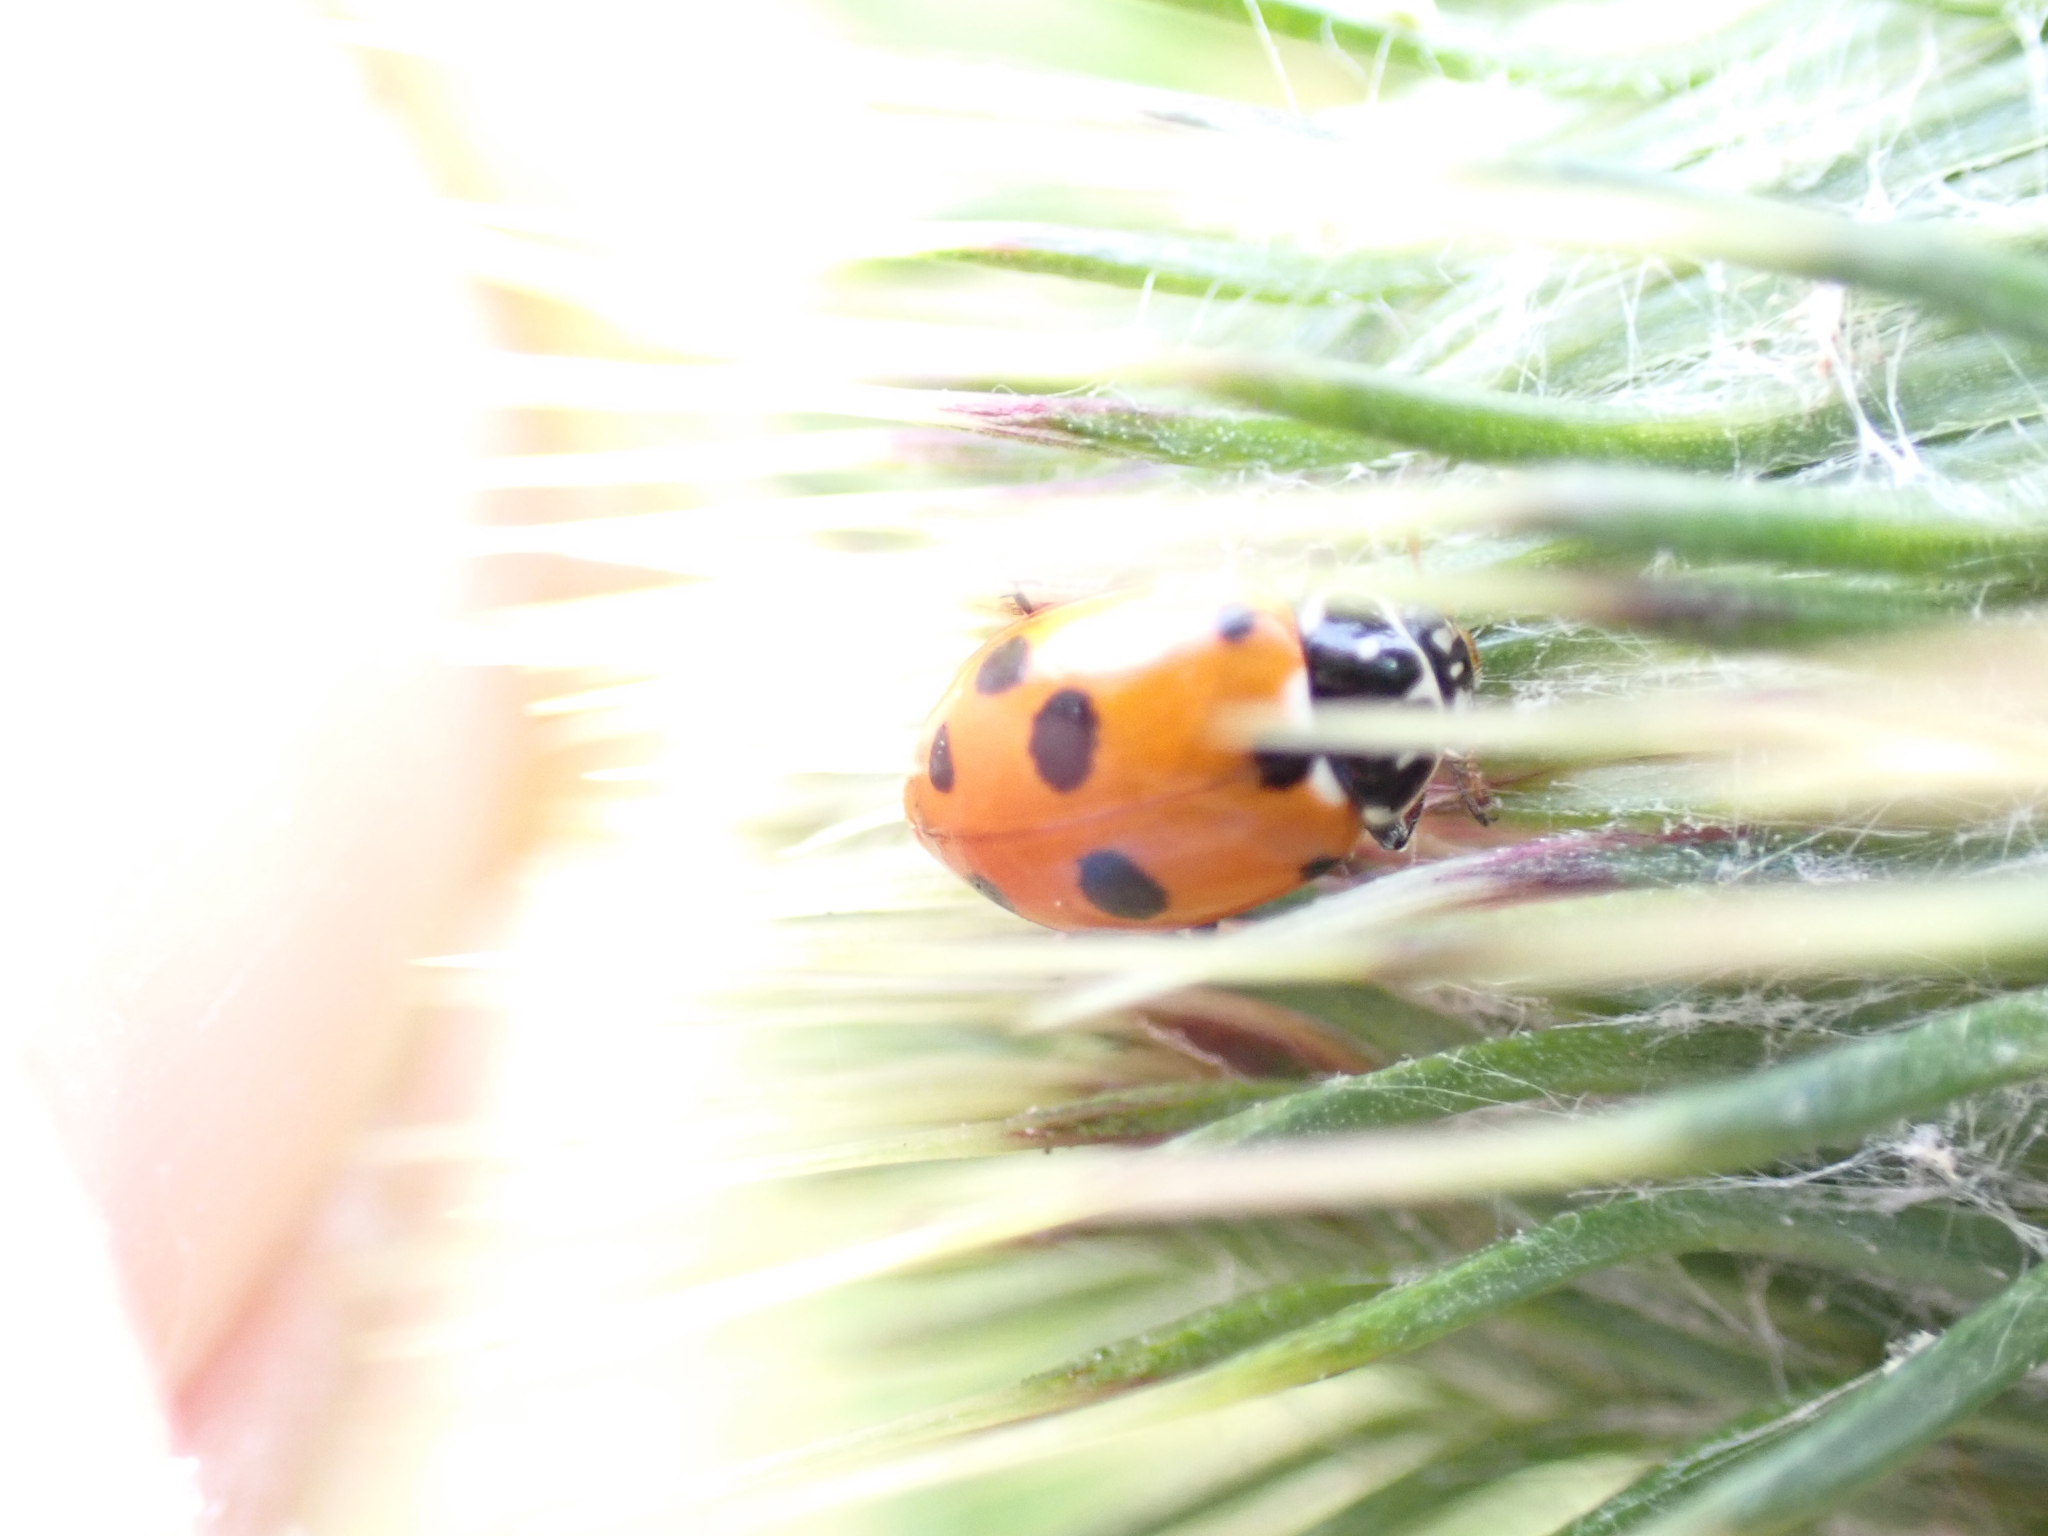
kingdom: Animalia
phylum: Arthropoda
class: Insecta
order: Coleoptera
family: Coccinellidae
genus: Hippodamia
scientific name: Hippodamia variegata
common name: Ladybird beetle
